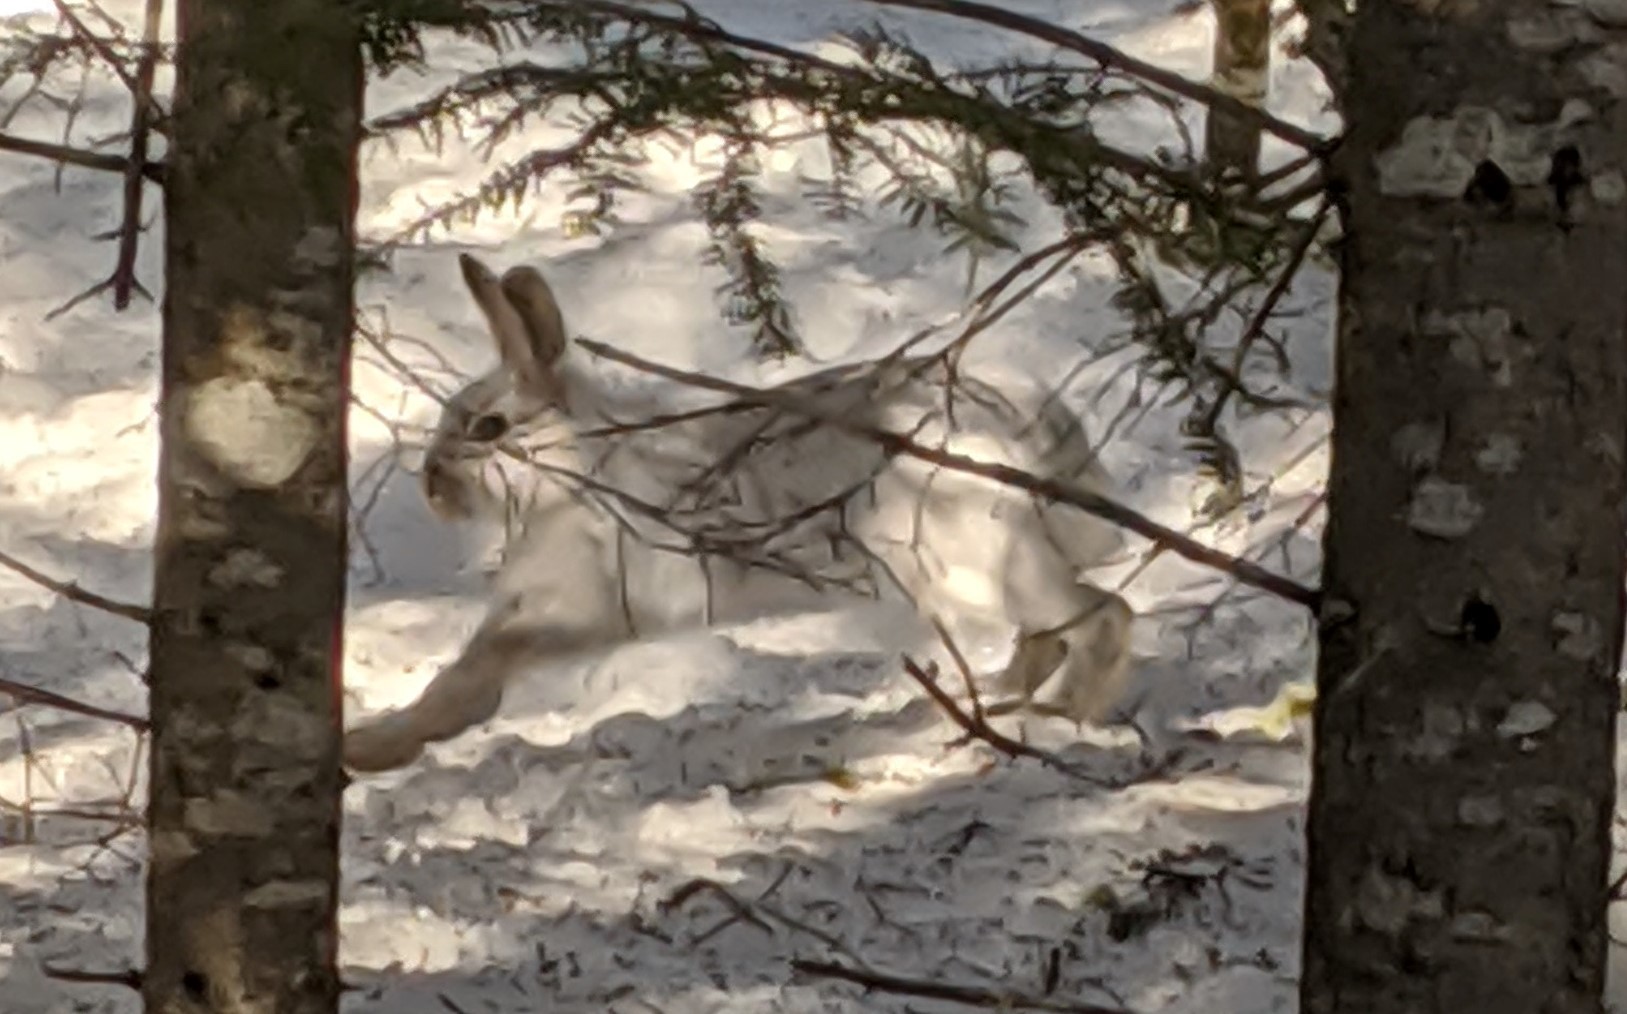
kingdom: Animalia
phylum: Chordata
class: Mammalia
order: Lagomorpha
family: Leporidae
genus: Lepus
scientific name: Lepus americanus
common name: Snowshoe hare
